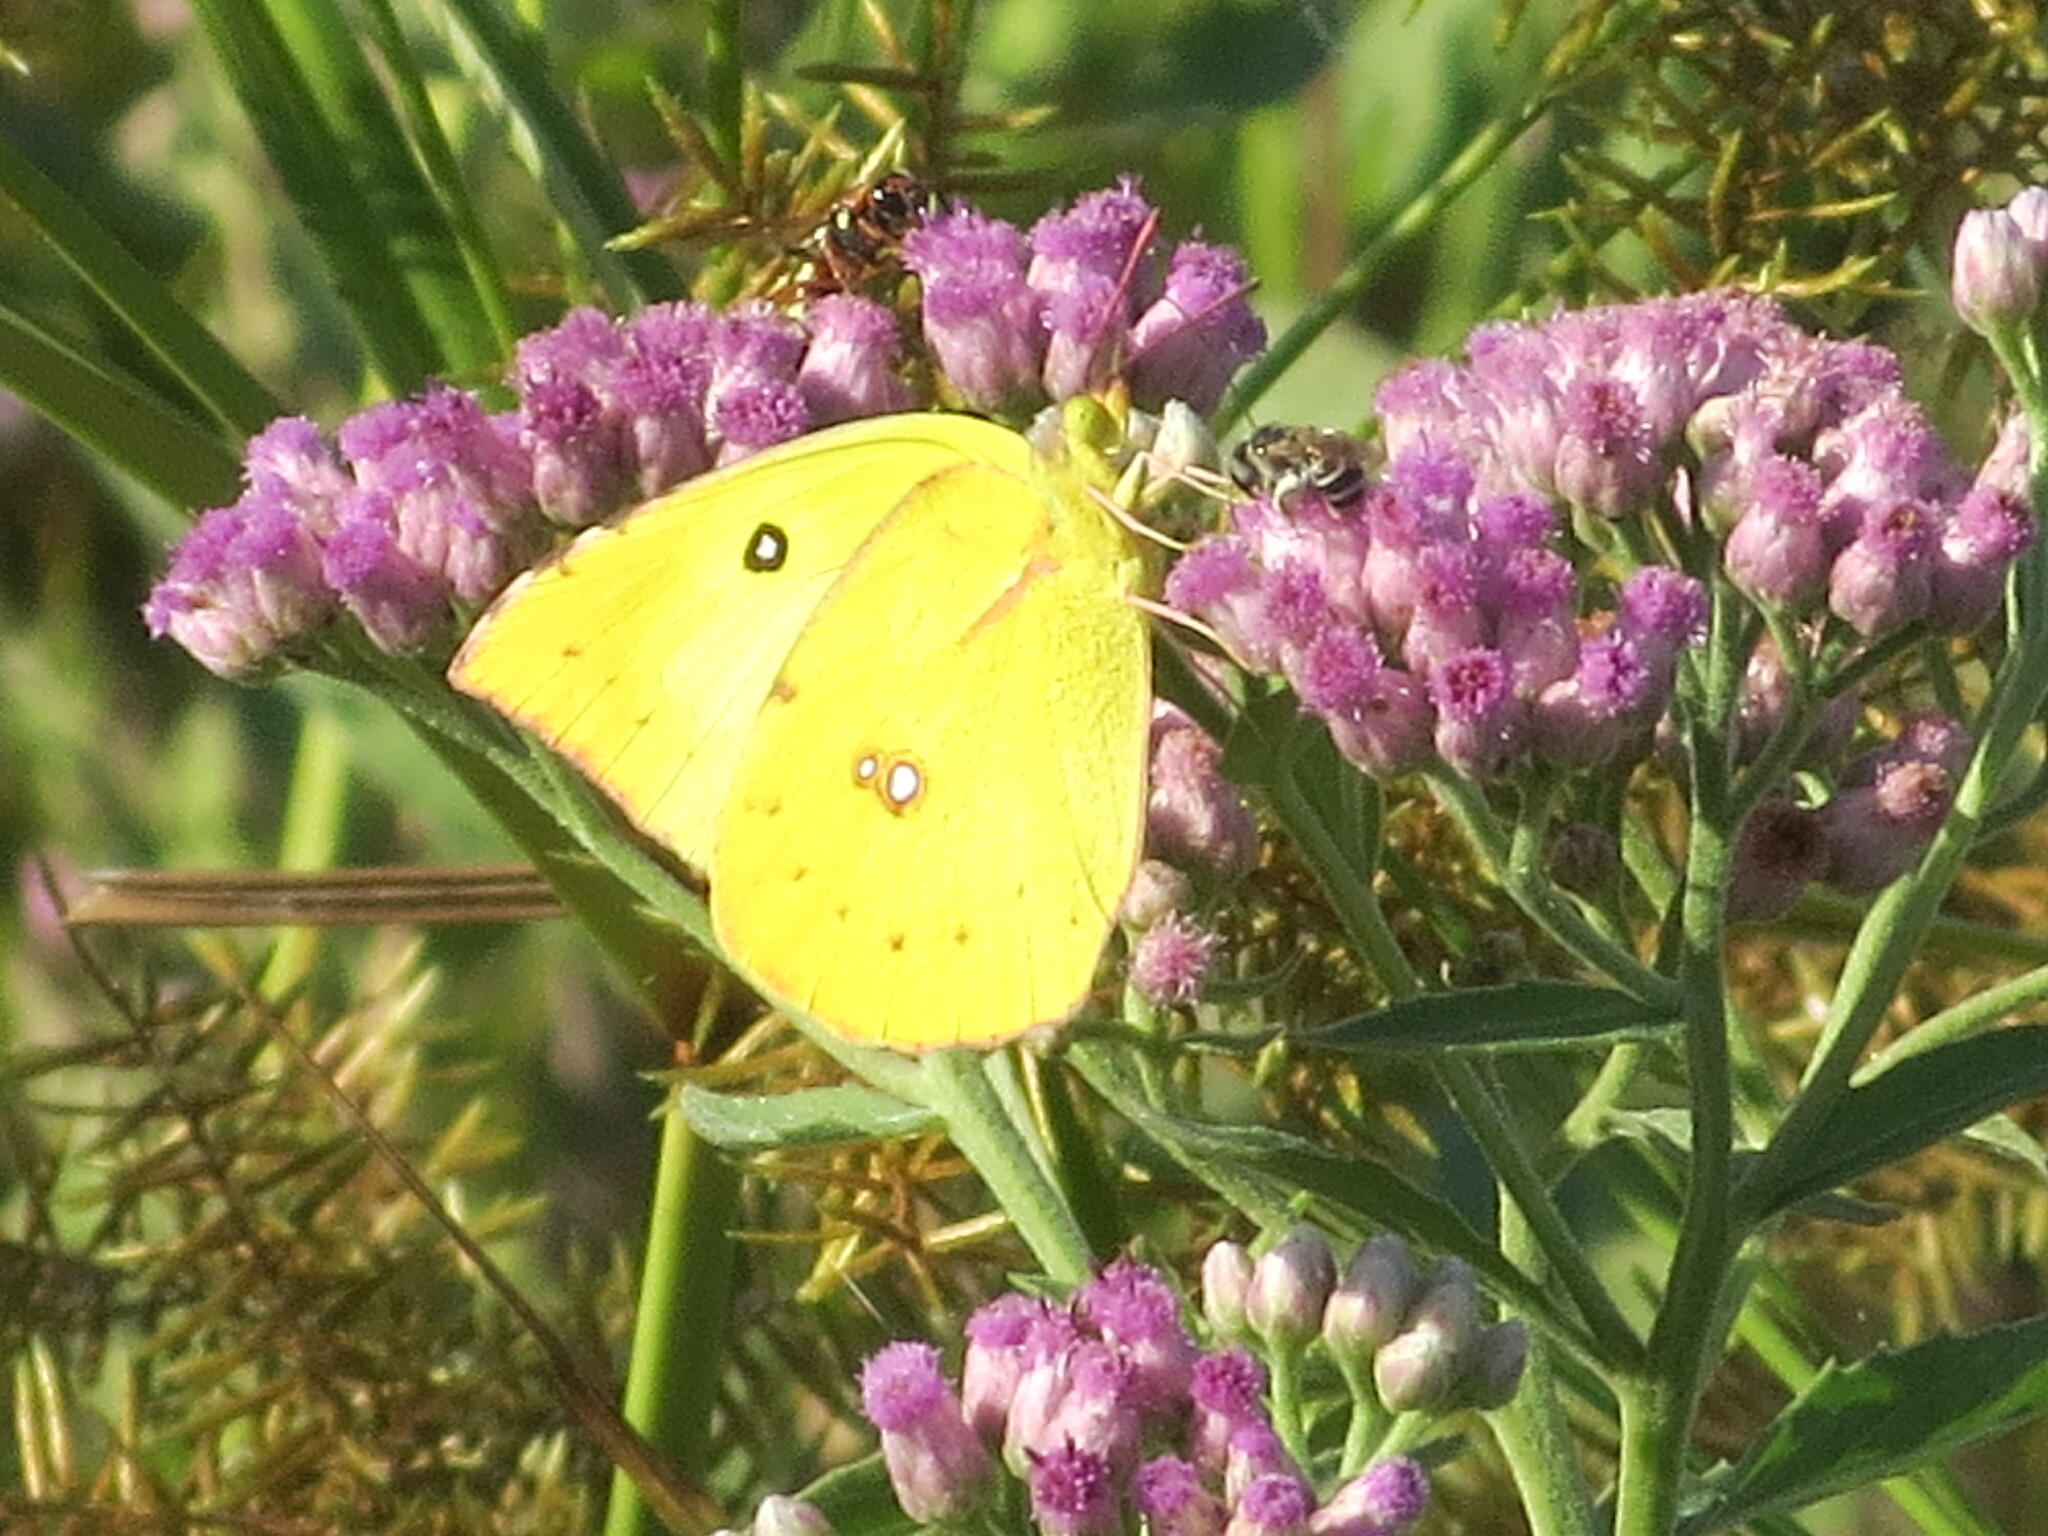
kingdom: Animalia
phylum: Arthropoda
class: Insecta
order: Lepidoptera
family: Pieridae
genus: Zerene
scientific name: Zerene cesonia
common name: Southern dogface
